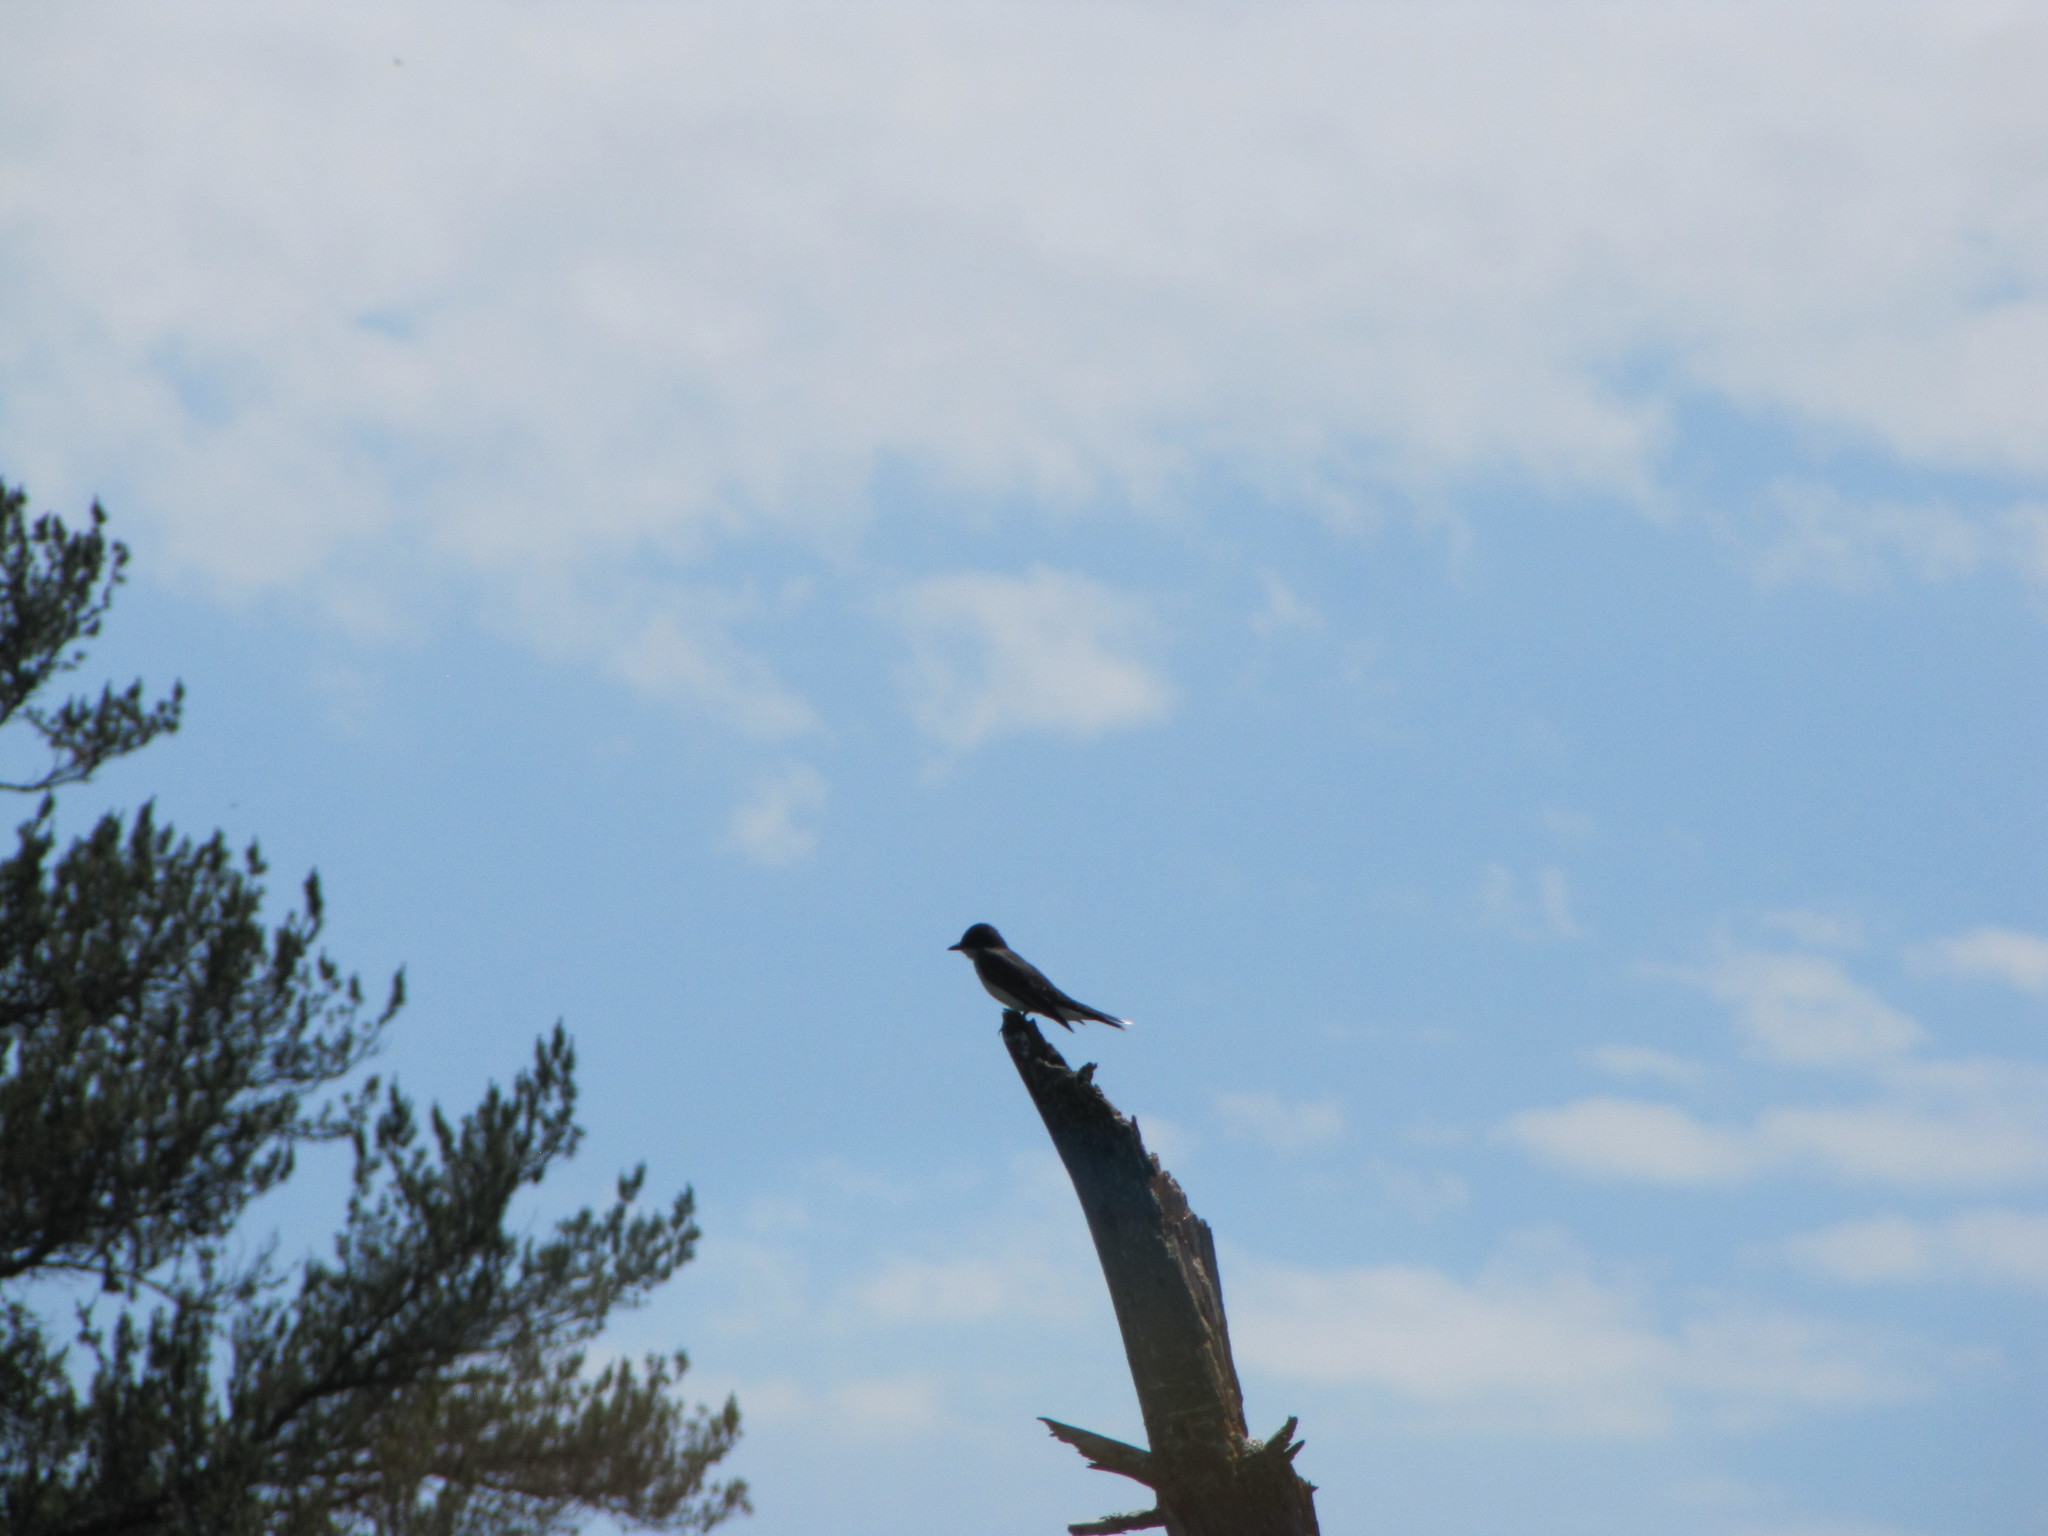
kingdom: Animalia
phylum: Chordata
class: Aves
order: Passeriformes
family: Tyrannidae
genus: Tyrannus
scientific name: Tyrannus tyrannus
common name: Eastern kingbird
